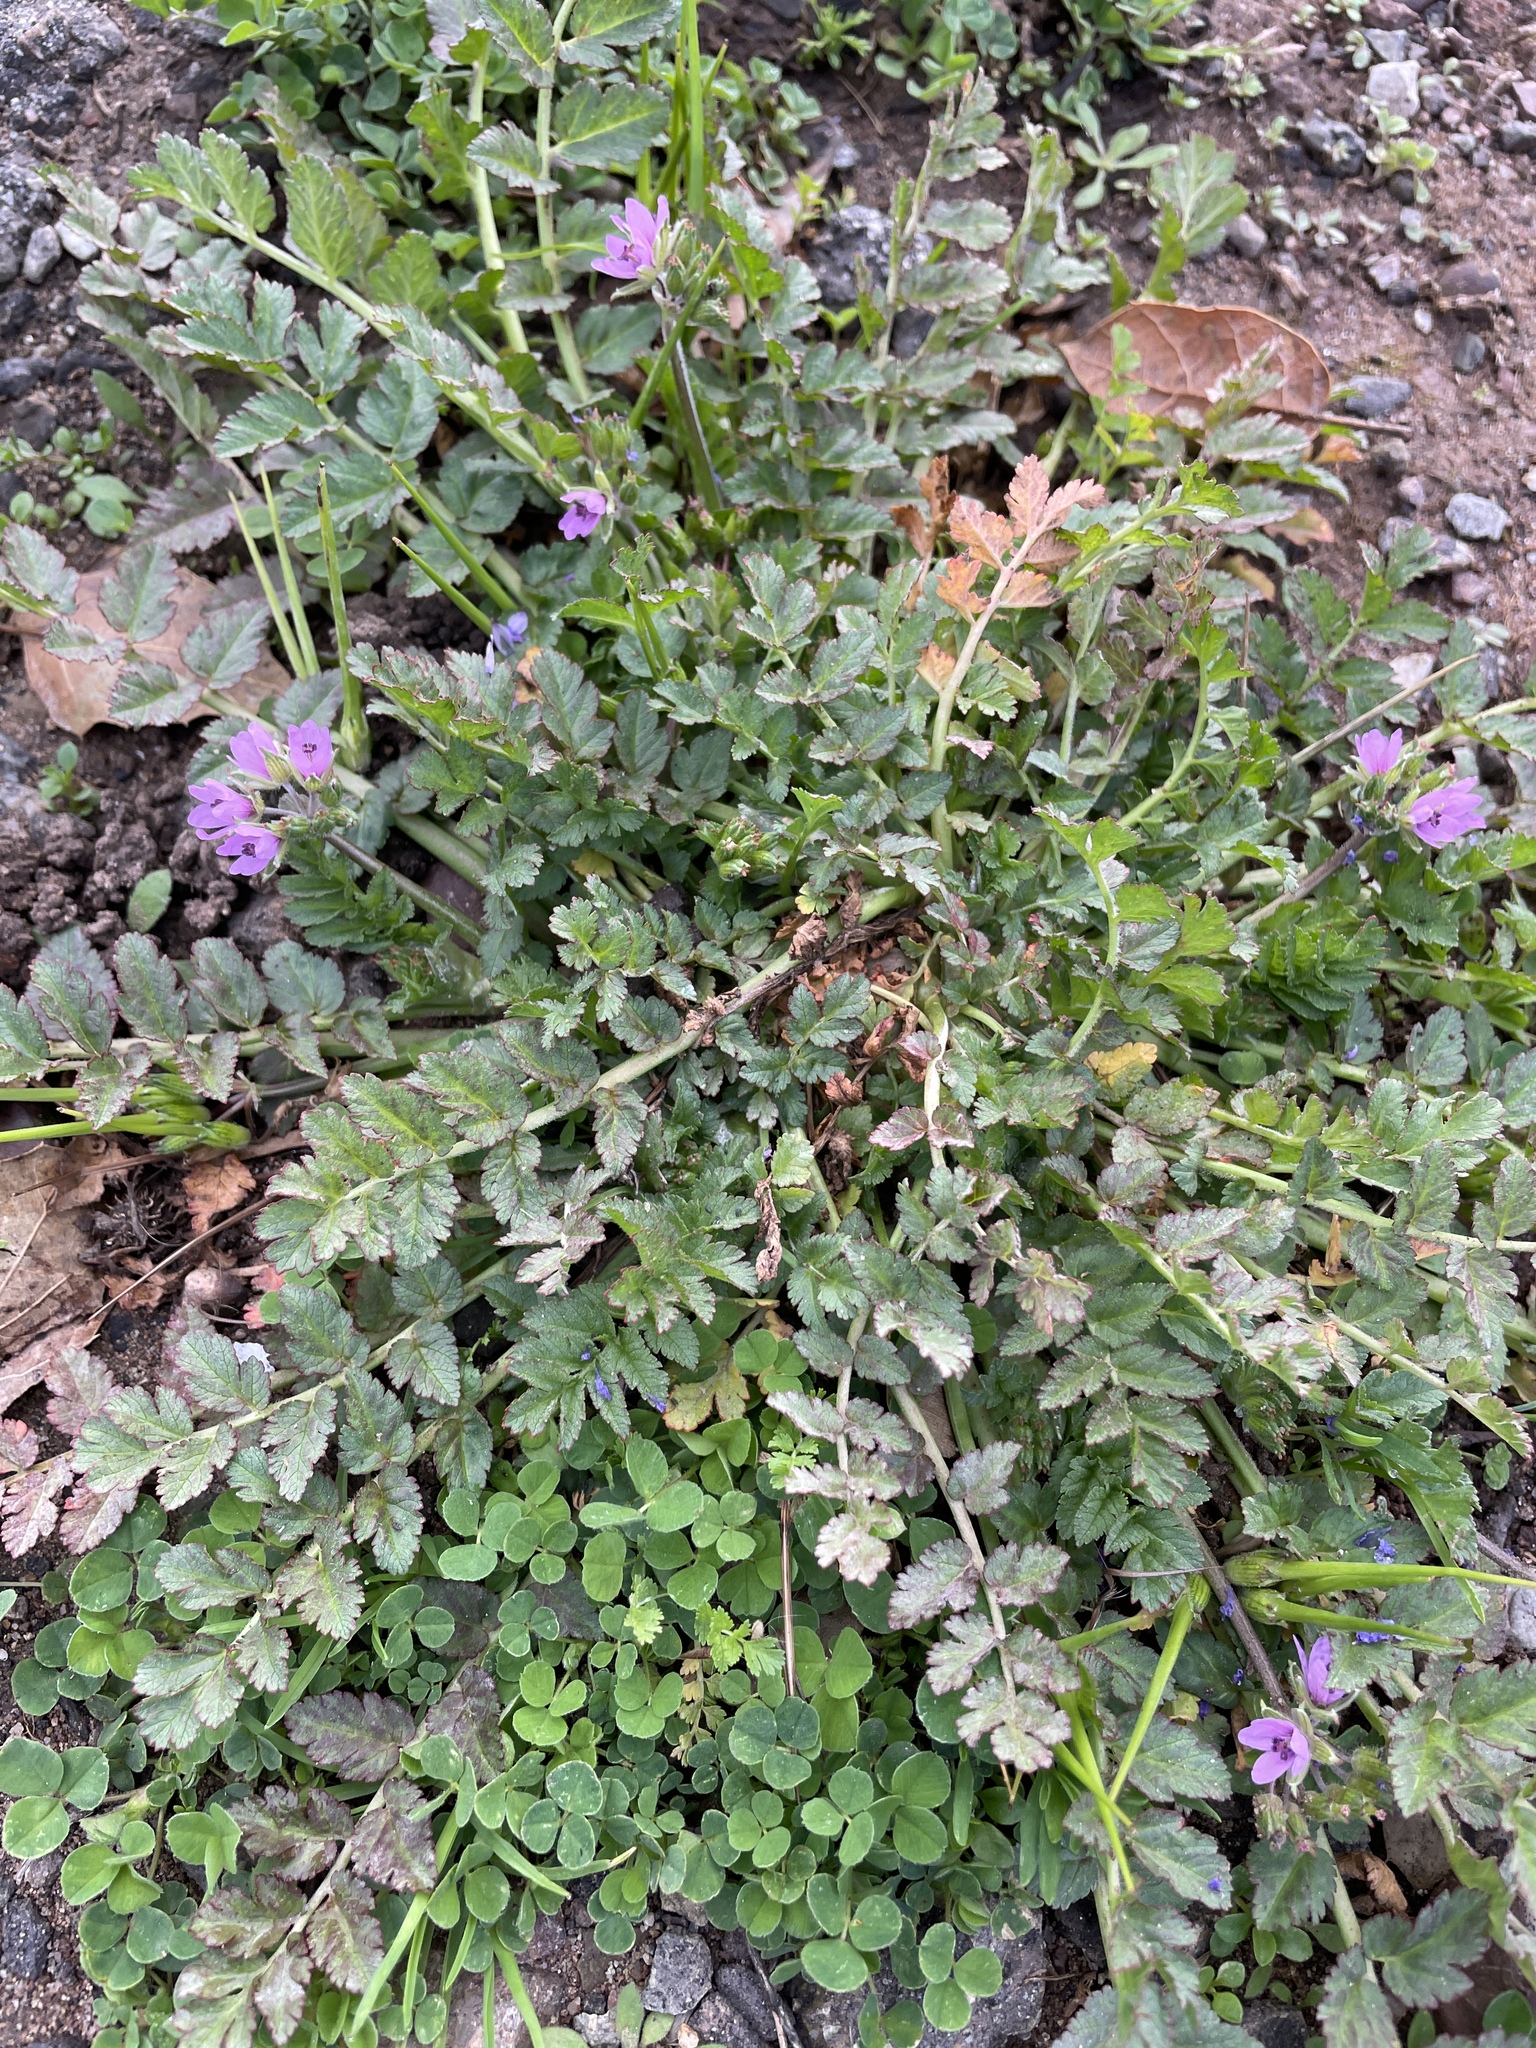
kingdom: Plantae
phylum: Tracheophyta
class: Magnoliopsida
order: Geraniales
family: Geraniaceae
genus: Erodium
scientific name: Erodium moschatum
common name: Musk stork's-bill
